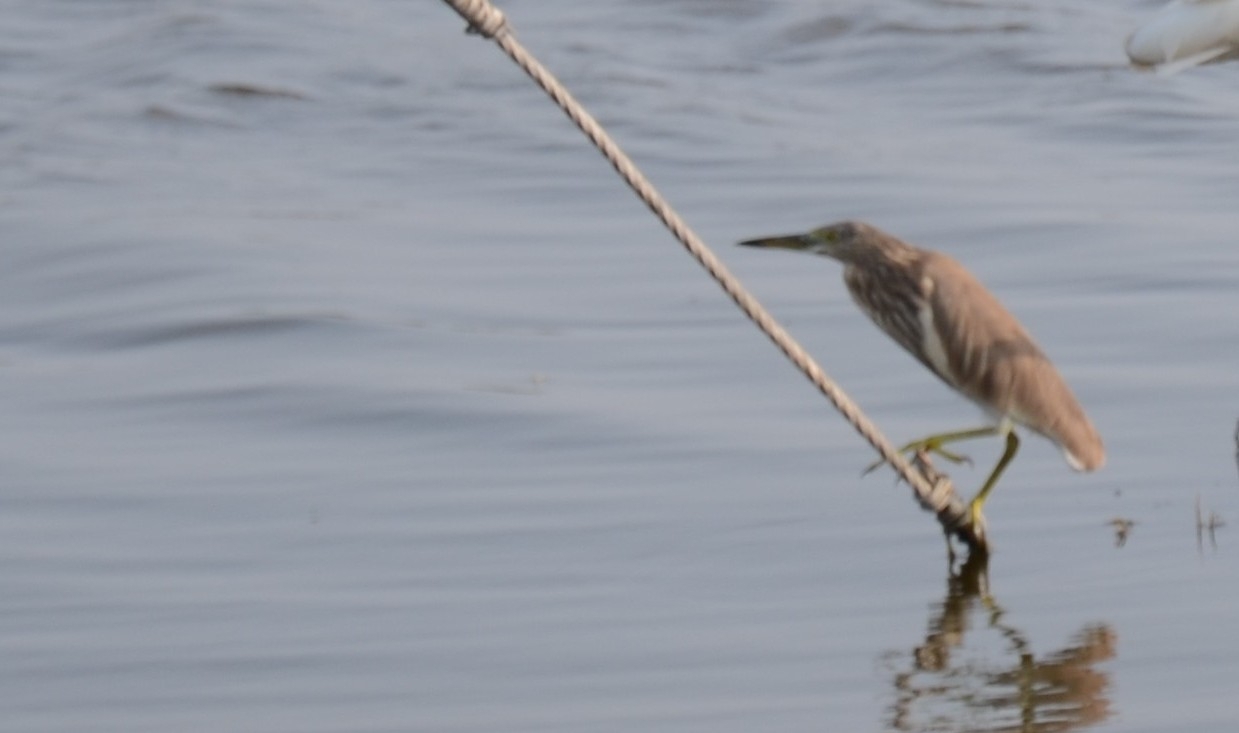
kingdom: Animalia
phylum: Chordata
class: Aves
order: Pelecaniformes
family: Ardeidae
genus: Ardeola
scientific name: Ardeola grayii
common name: Indian pond heron
